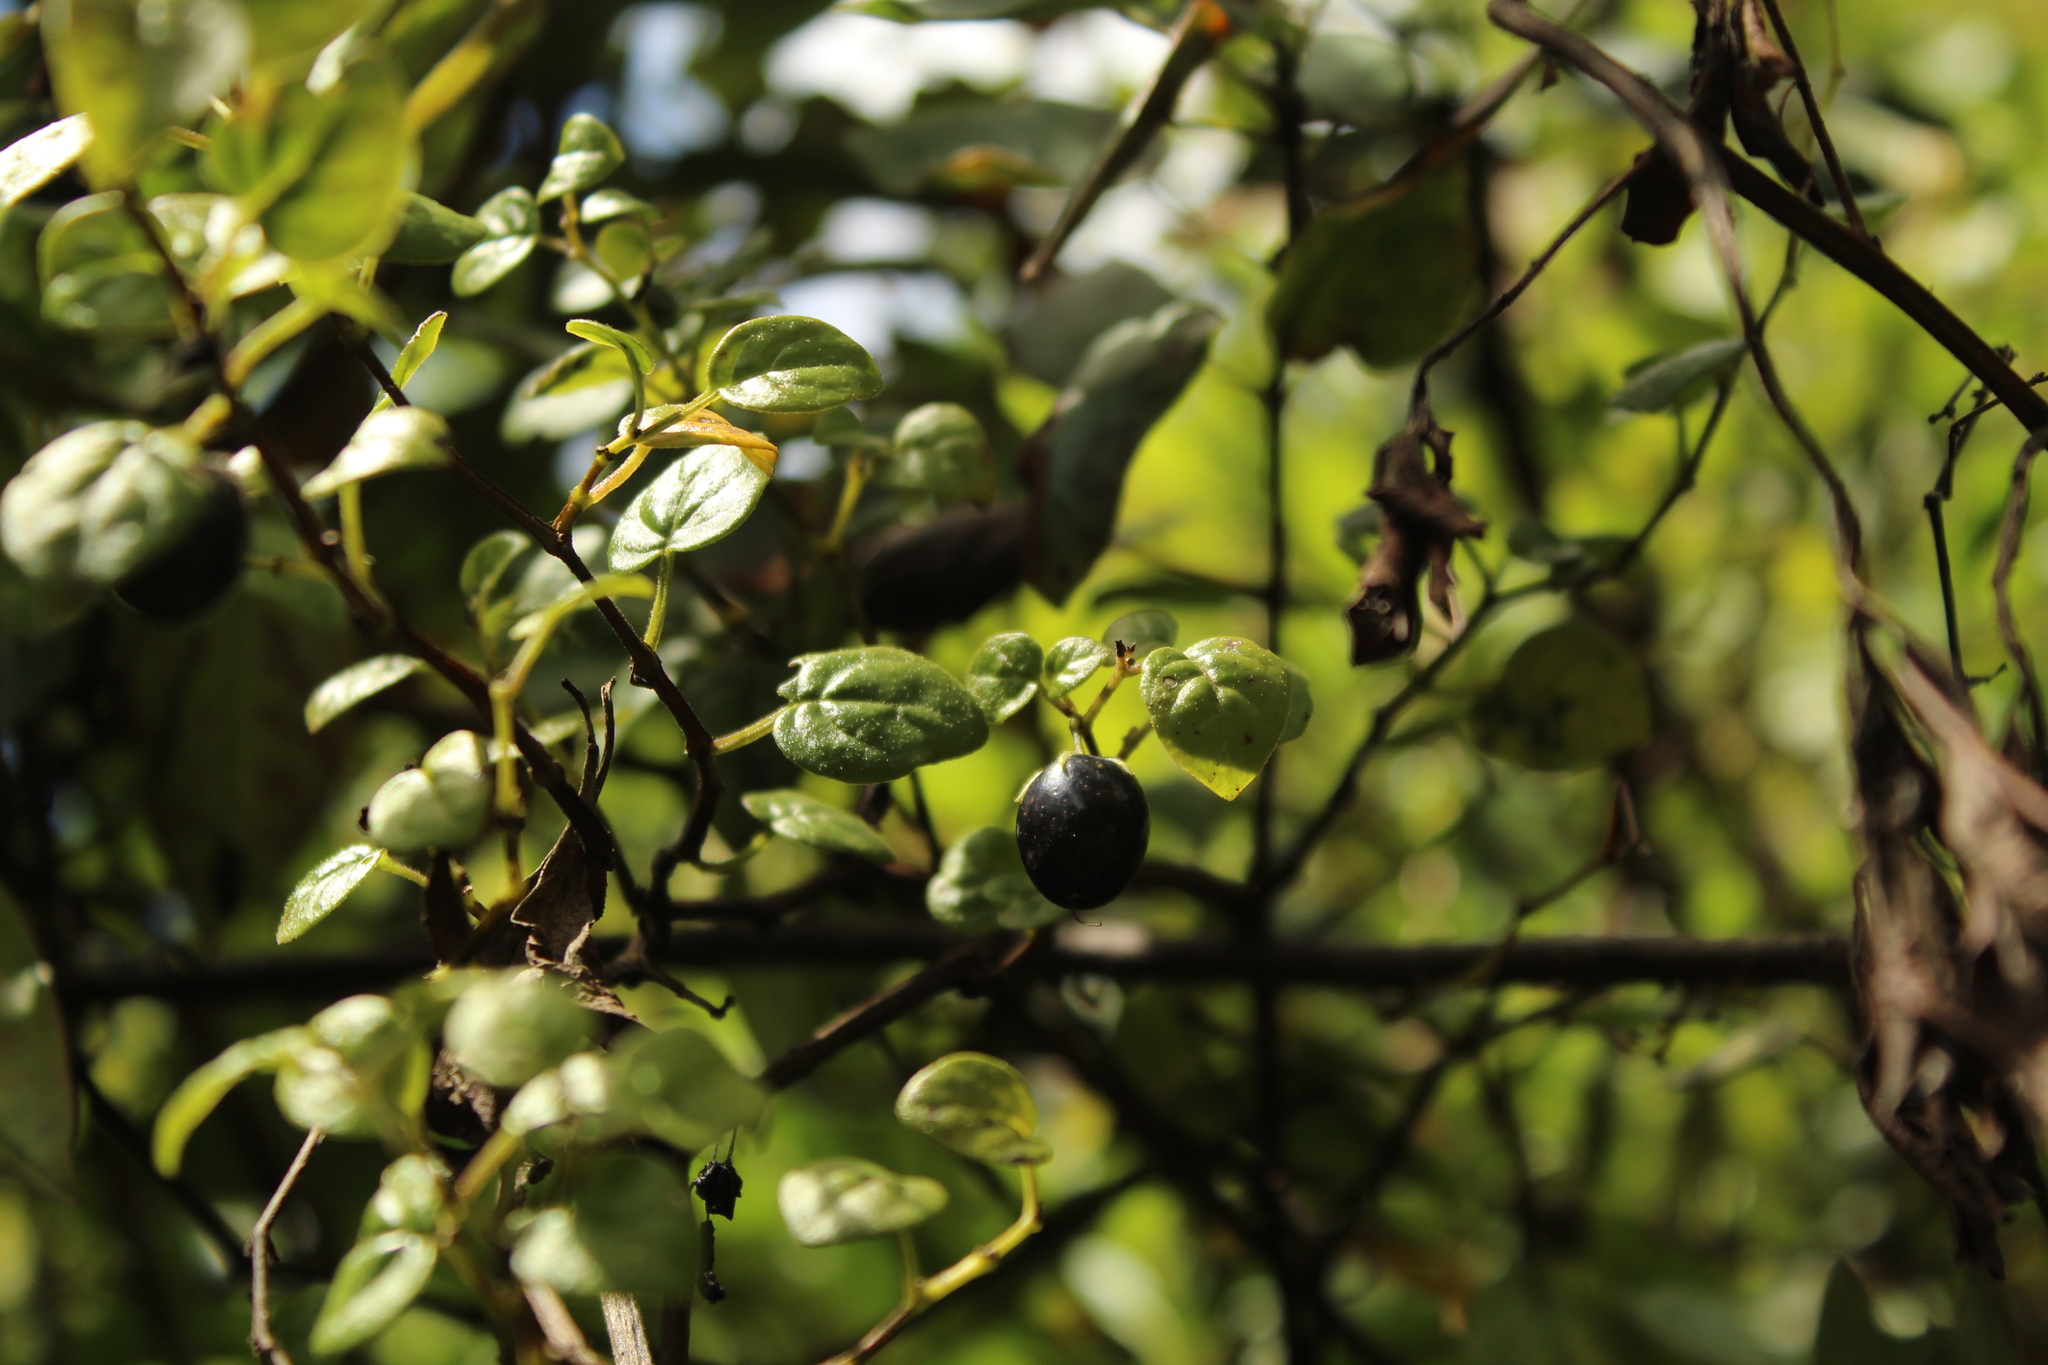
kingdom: Plantae
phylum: Tracheophyta
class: Magnoliopsida
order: Solanales
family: Solanaceae
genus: Salpichroa
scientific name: Salpichroa tristis
